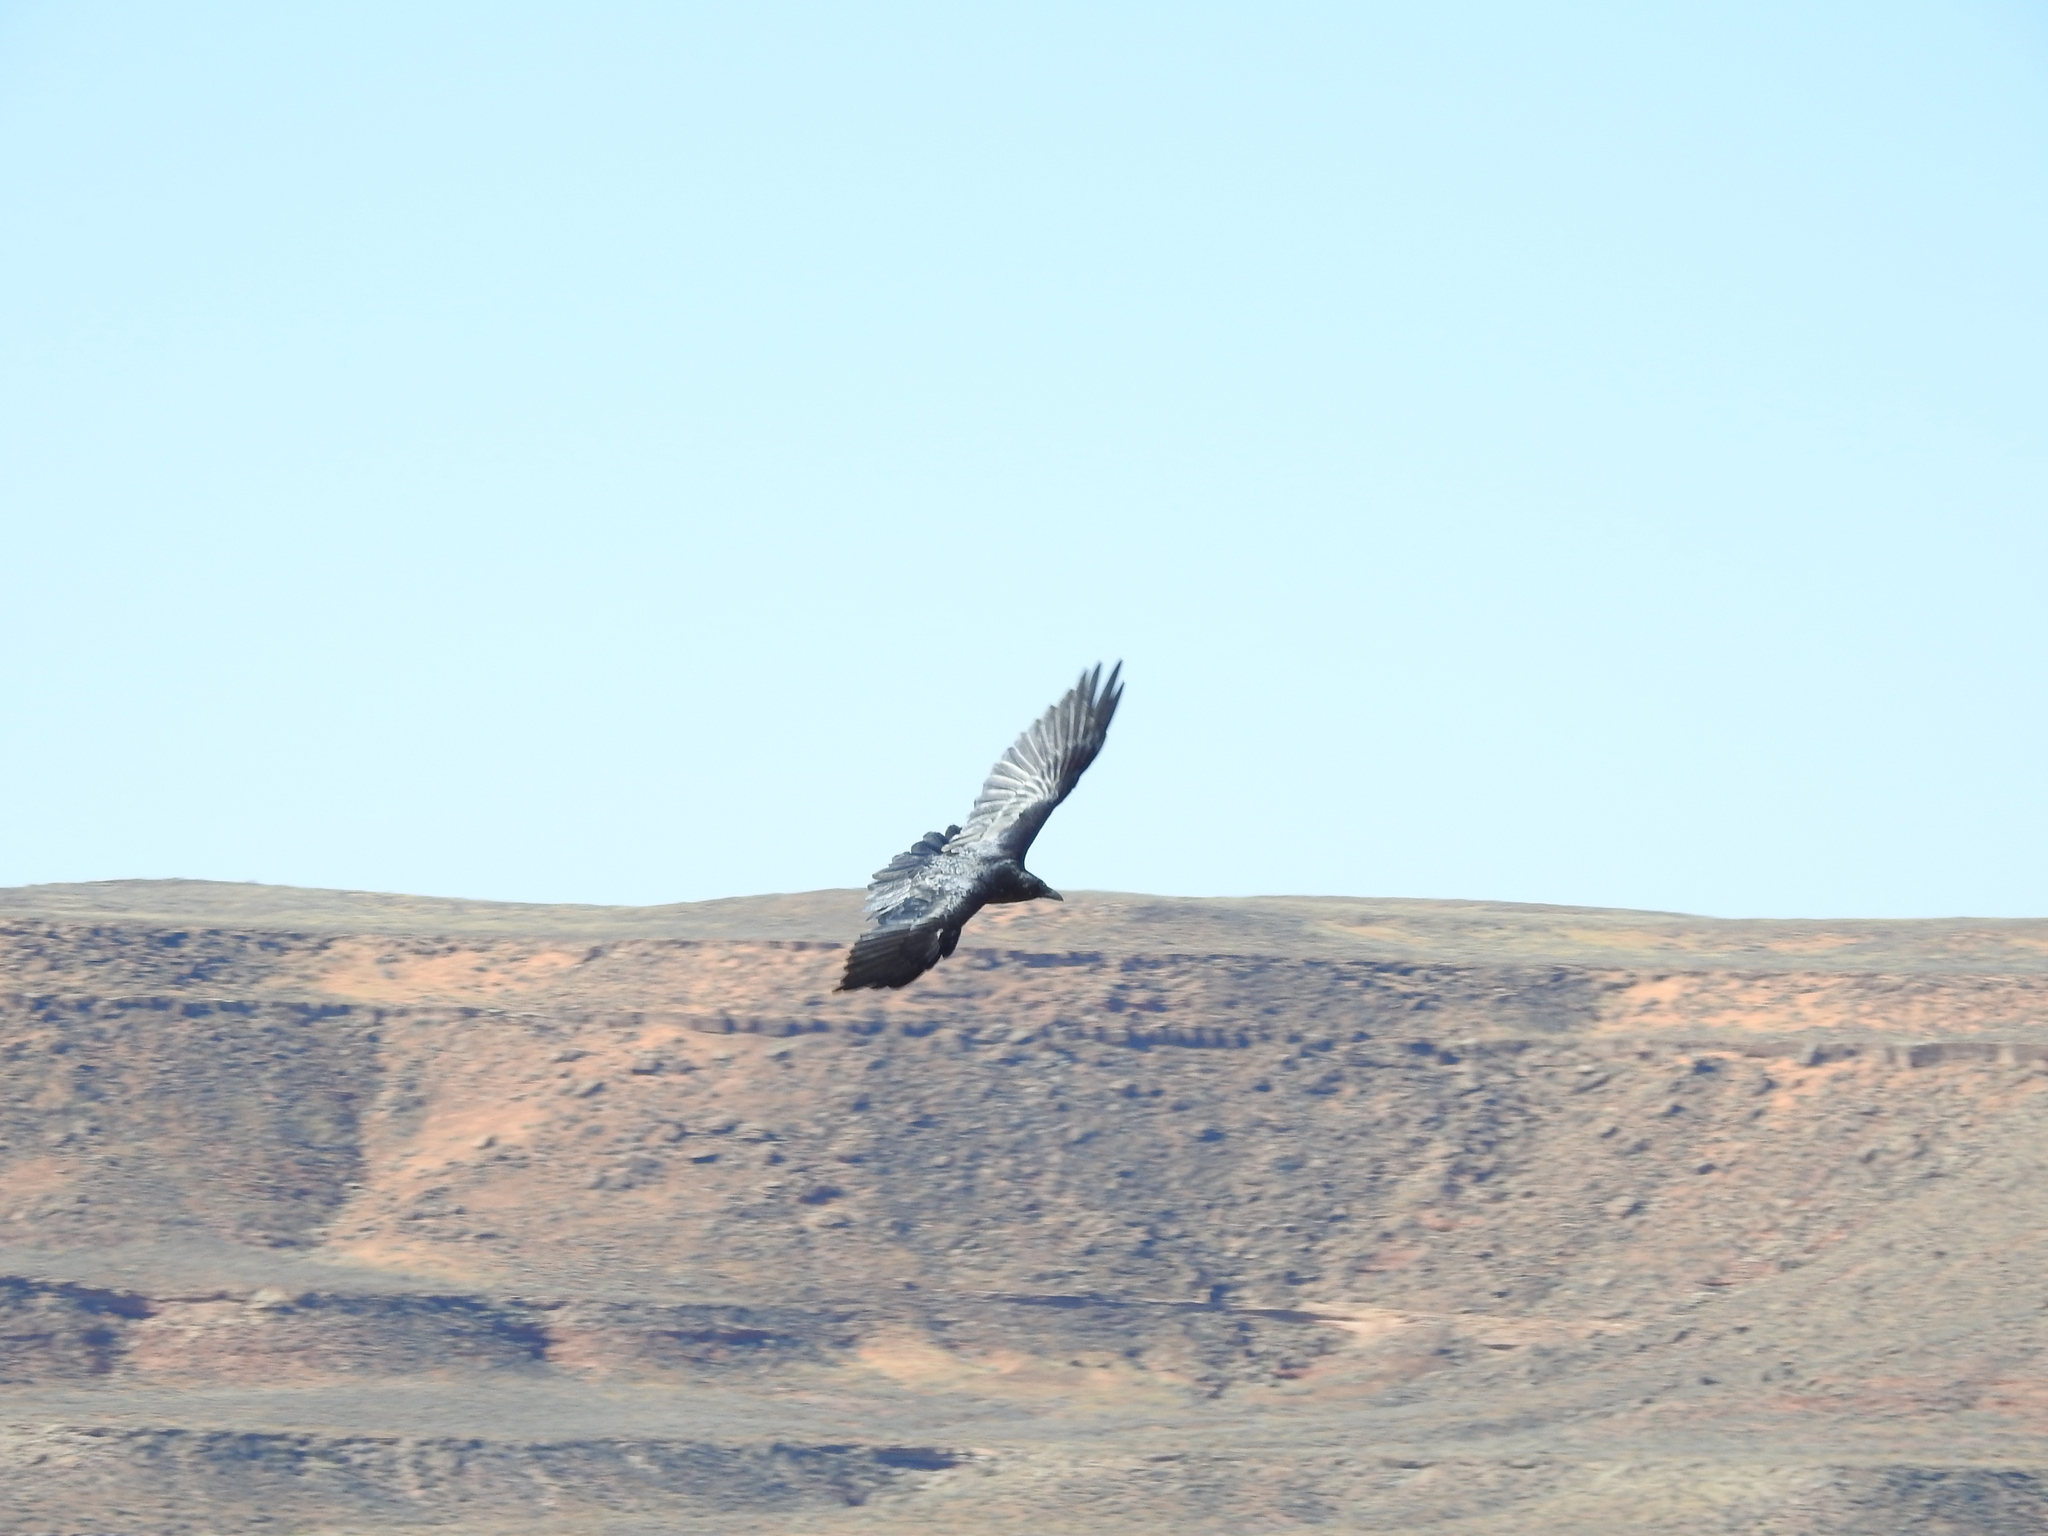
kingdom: Animalia
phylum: Chordata
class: Aves
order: Passeriformes
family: Corvidae
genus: Corvus
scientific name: Corvus corax
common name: Common raven
